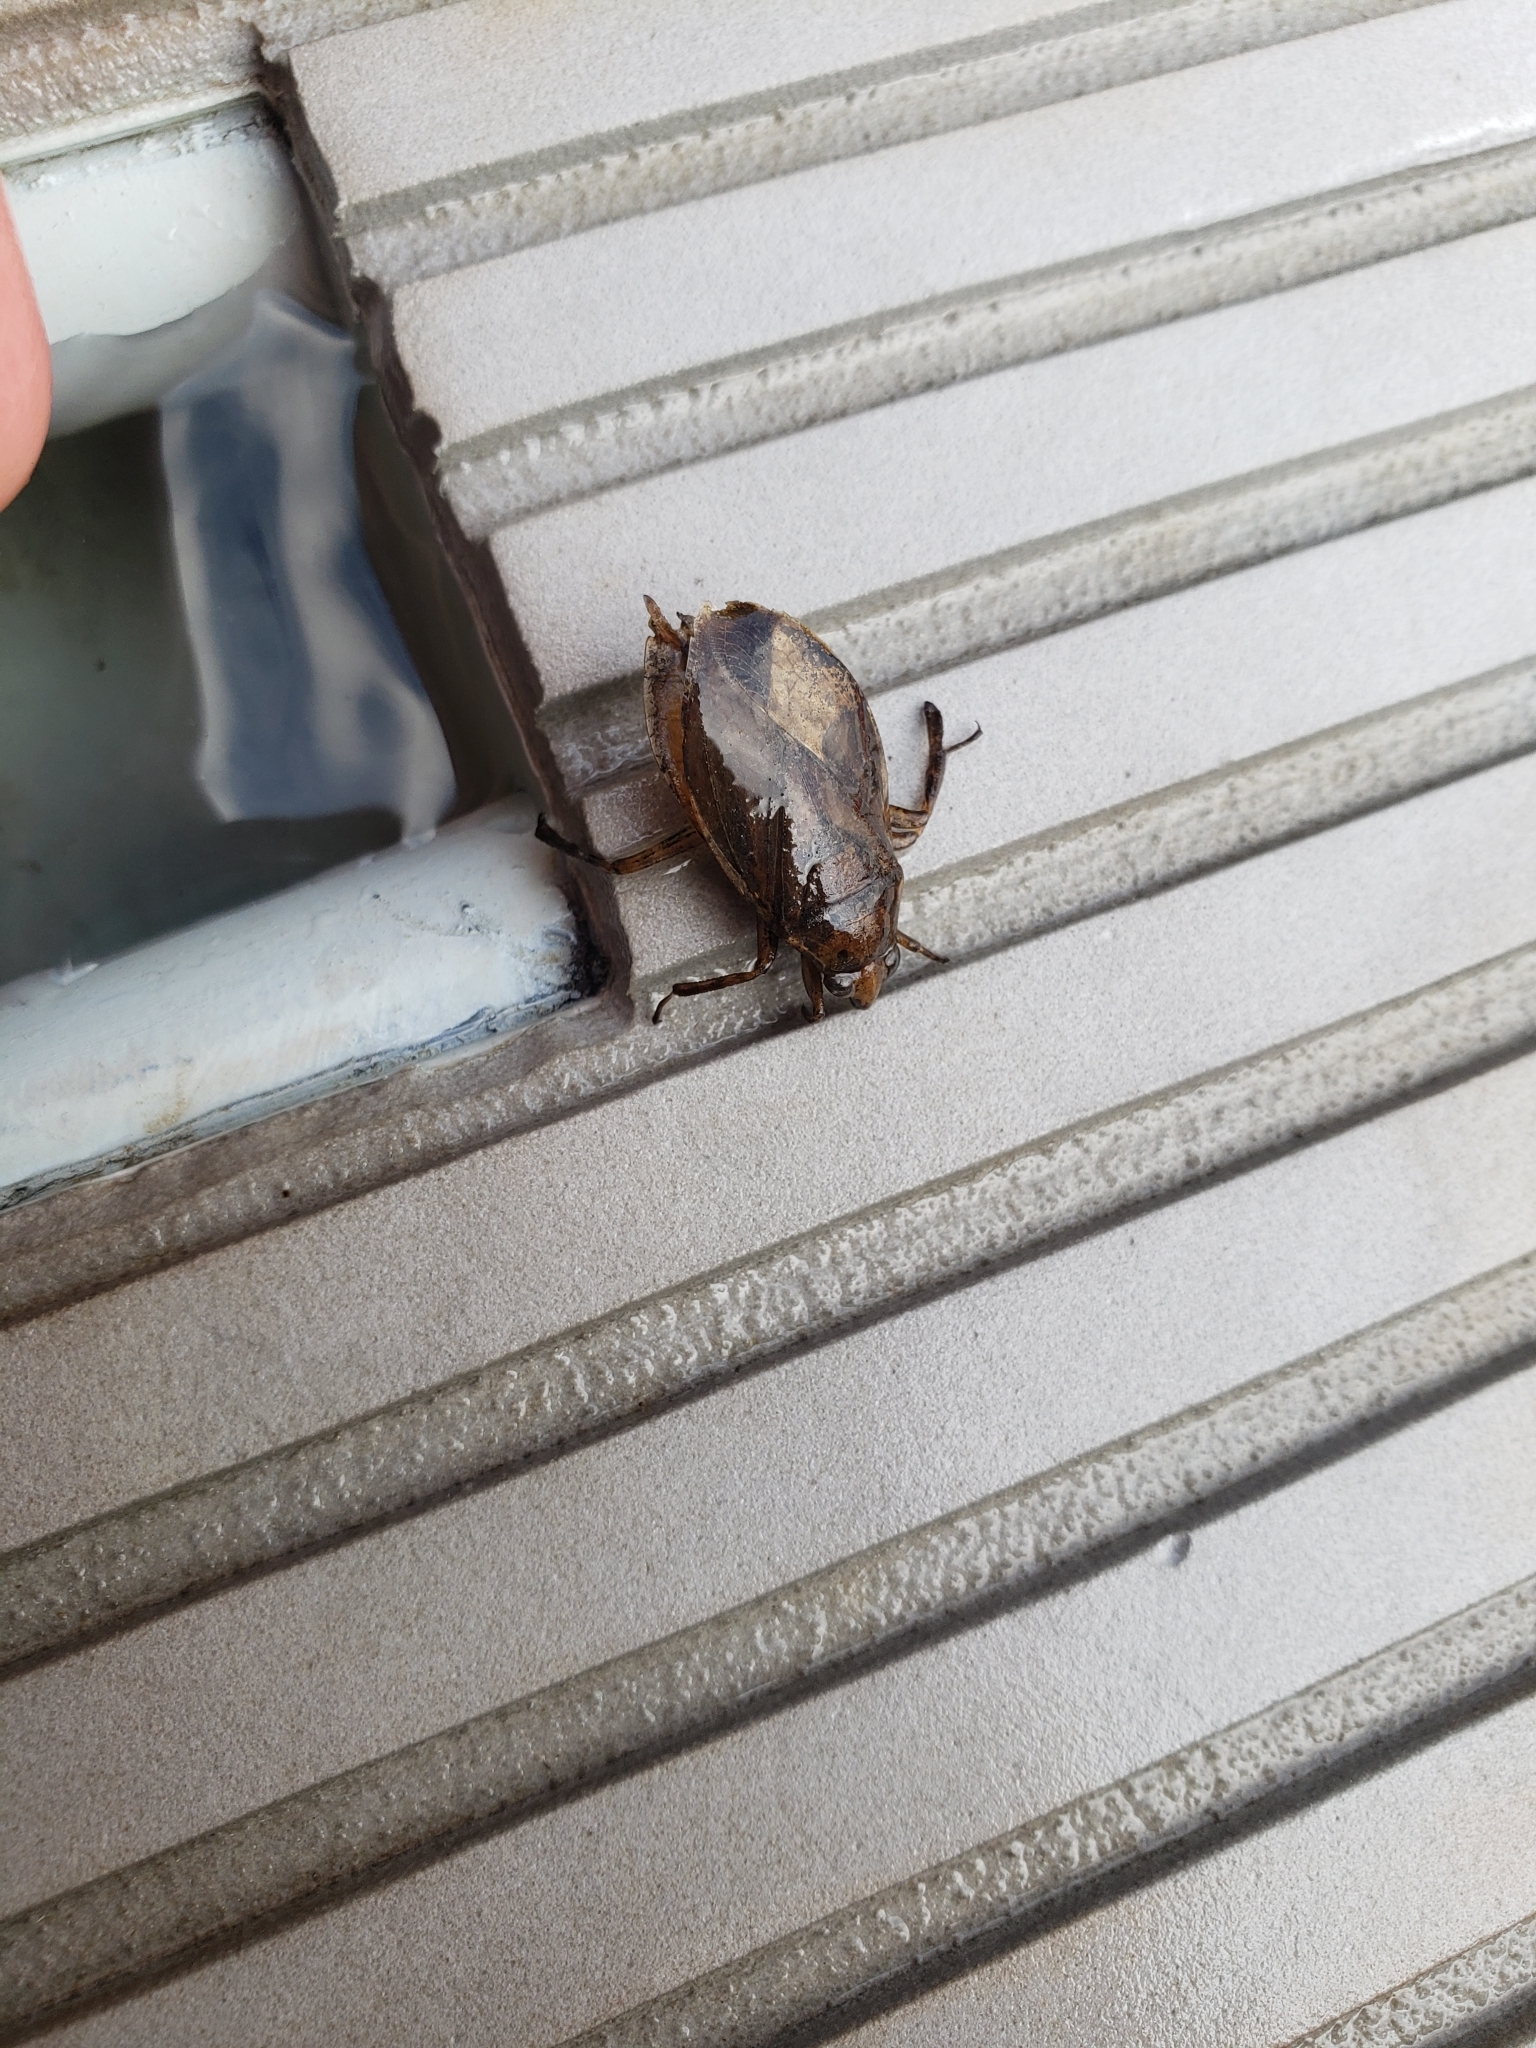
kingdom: Animalia
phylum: Arthropoda
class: Insecta
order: Hemiptera
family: Belostomatidae
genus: Belostoma
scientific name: Belostoma flumineum
